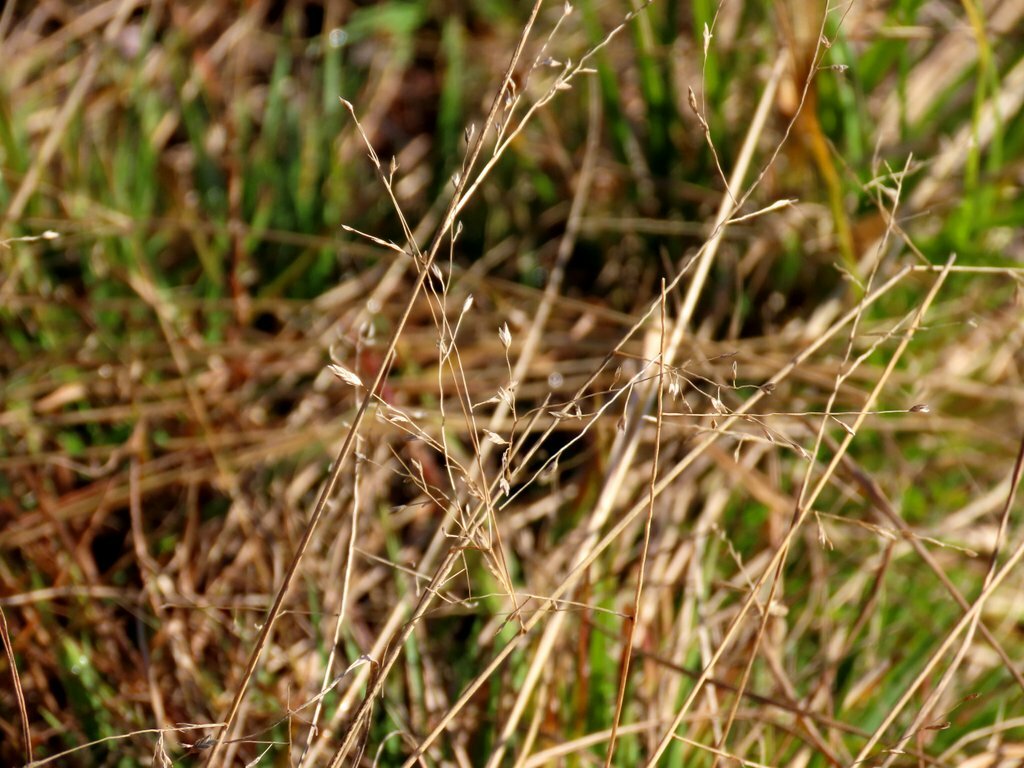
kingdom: Plantae
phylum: Tracheophyta
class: Liliopsida
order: Poales
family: Poaceae
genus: Eragrostis
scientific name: Eragrostis brownii
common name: Lovegrass
